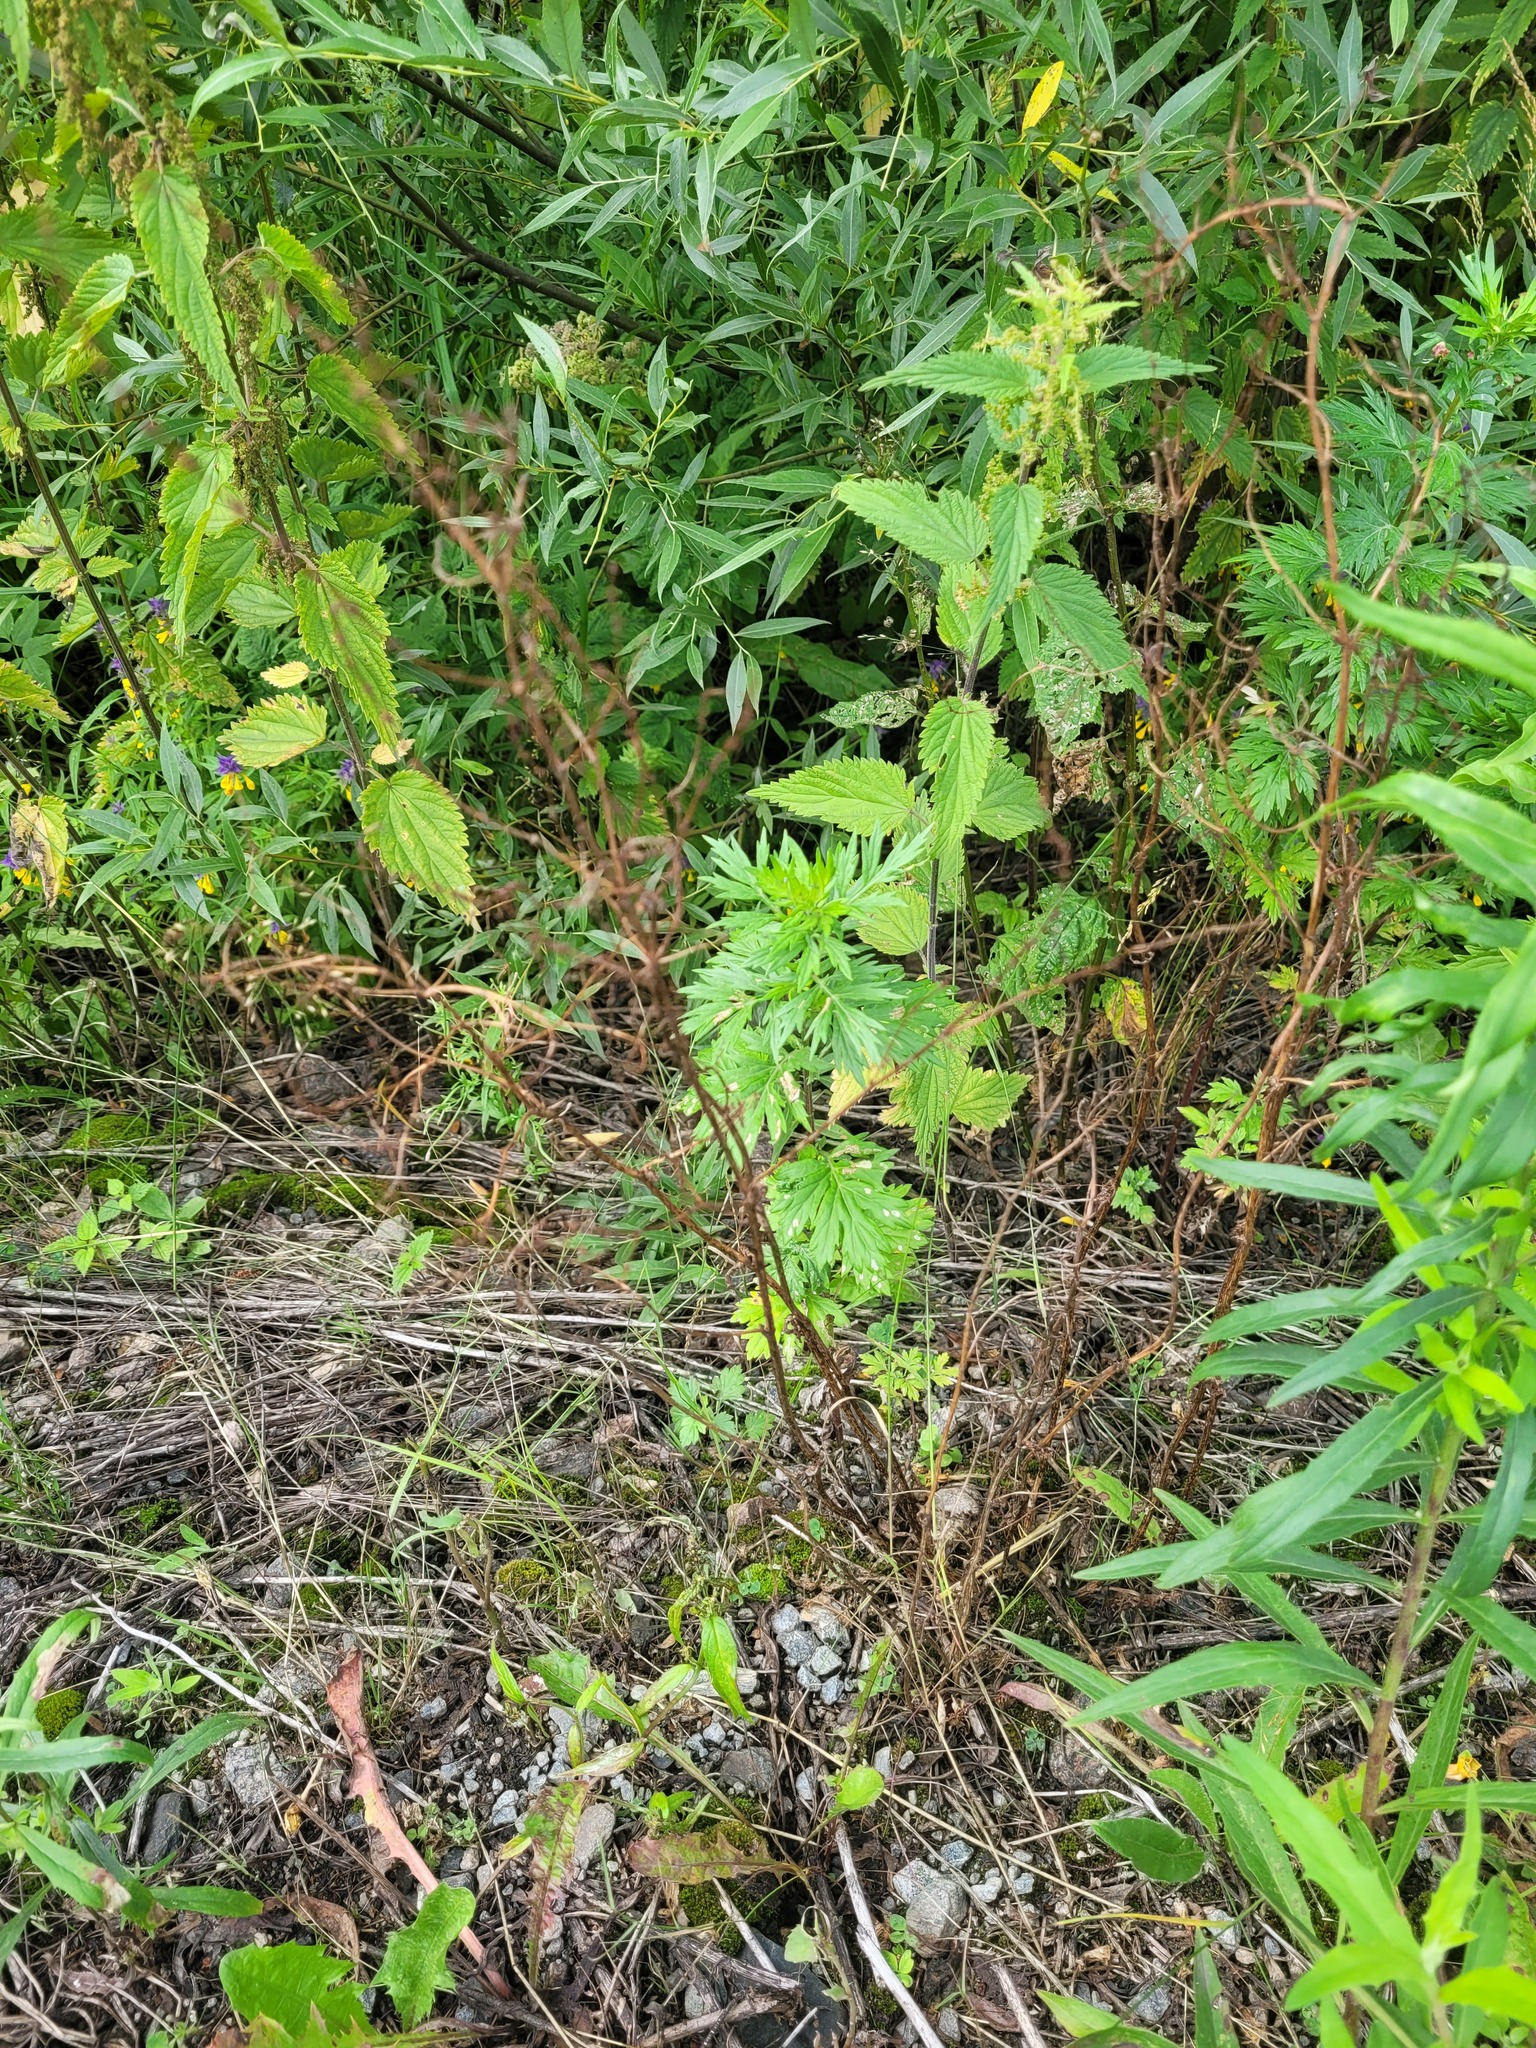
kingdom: Plantae
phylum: Tracheophyta
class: Magnoliopsida
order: Caryophyllales
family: Polygonaceae
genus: Rumex
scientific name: Rumex acetosa
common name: Garden sorrel
